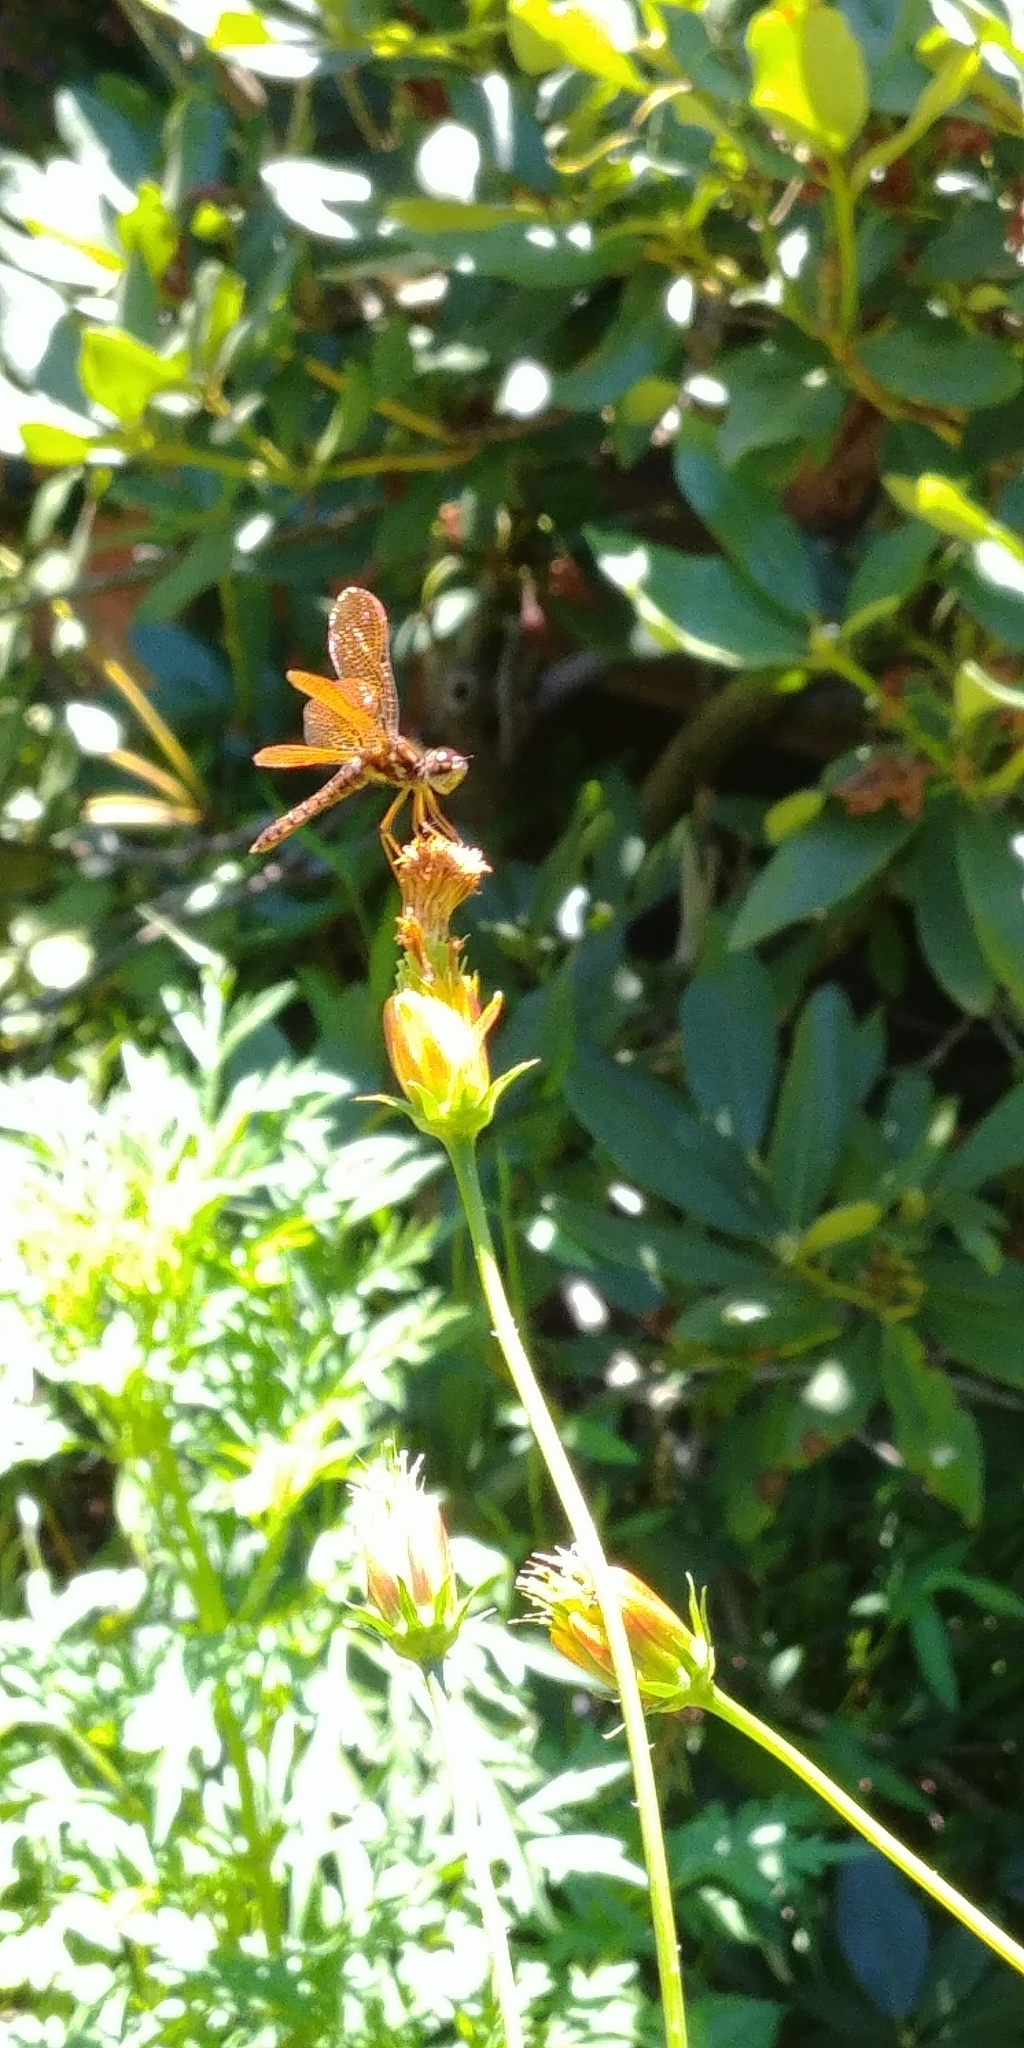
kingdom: Animalia
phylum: Arthropoda
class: Insecta
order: Odonata
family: Libellulidae
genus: Perithemis
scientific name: Perithemis tenera
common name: Eastern amberwing
